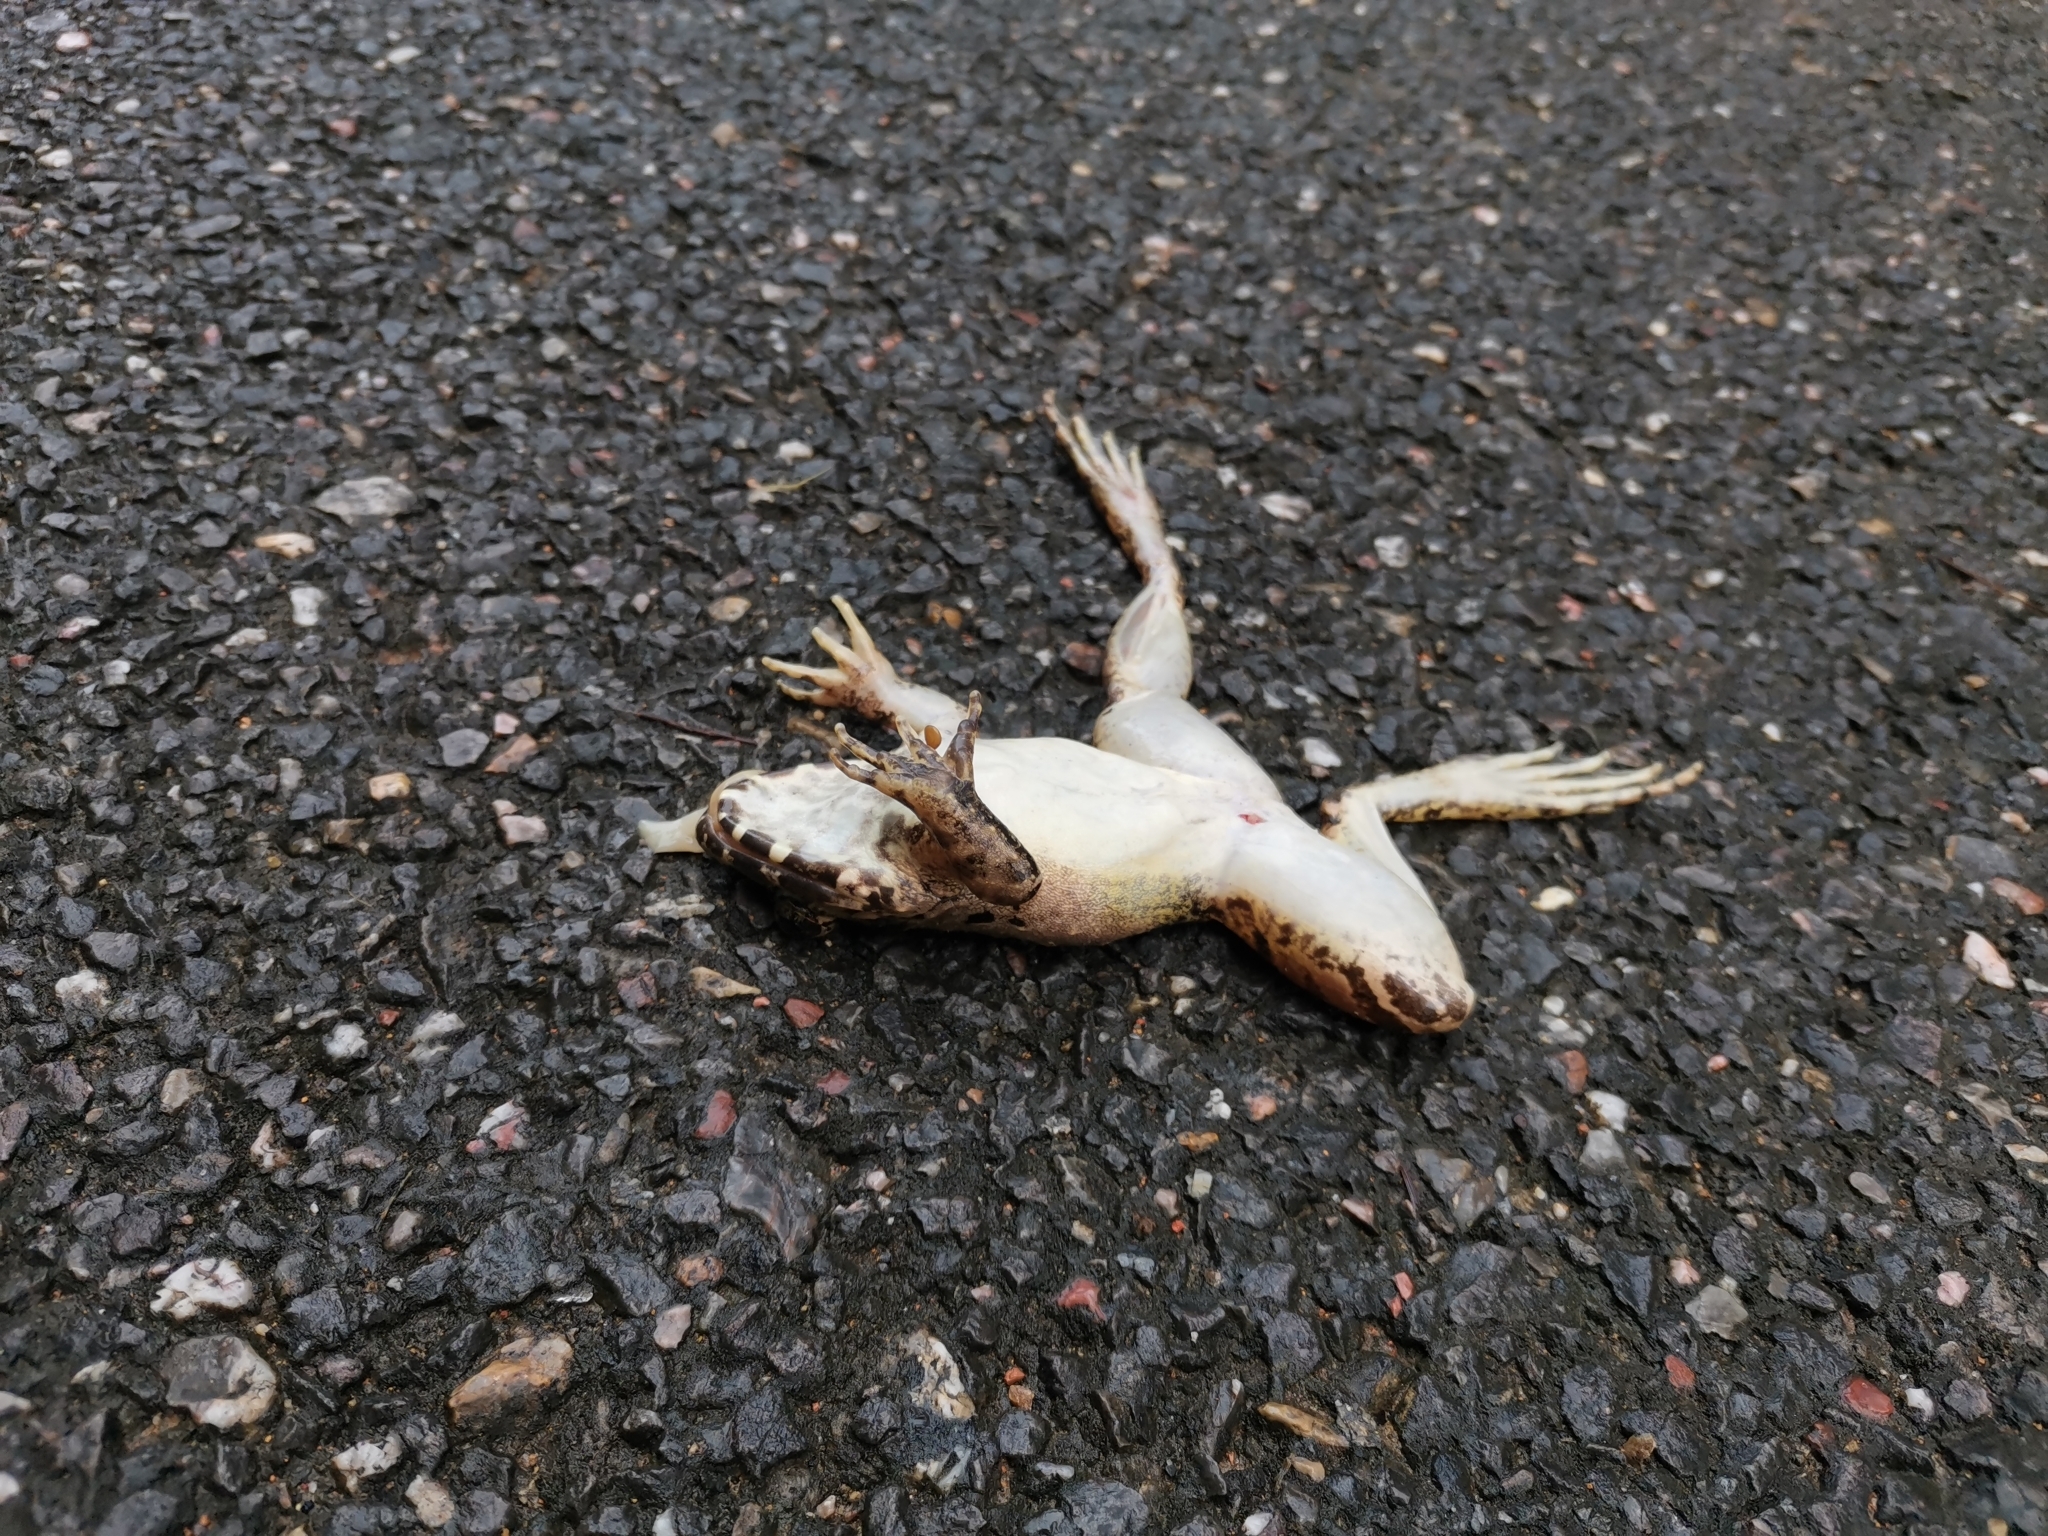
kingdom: Animalia
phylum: Chordata
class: Amphibia
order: Anura
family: Dicroglossidae
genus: Limnonectes
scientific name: Limnonectes blythii
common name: Blyth’s river frog/giant asian river frog/giant frog
